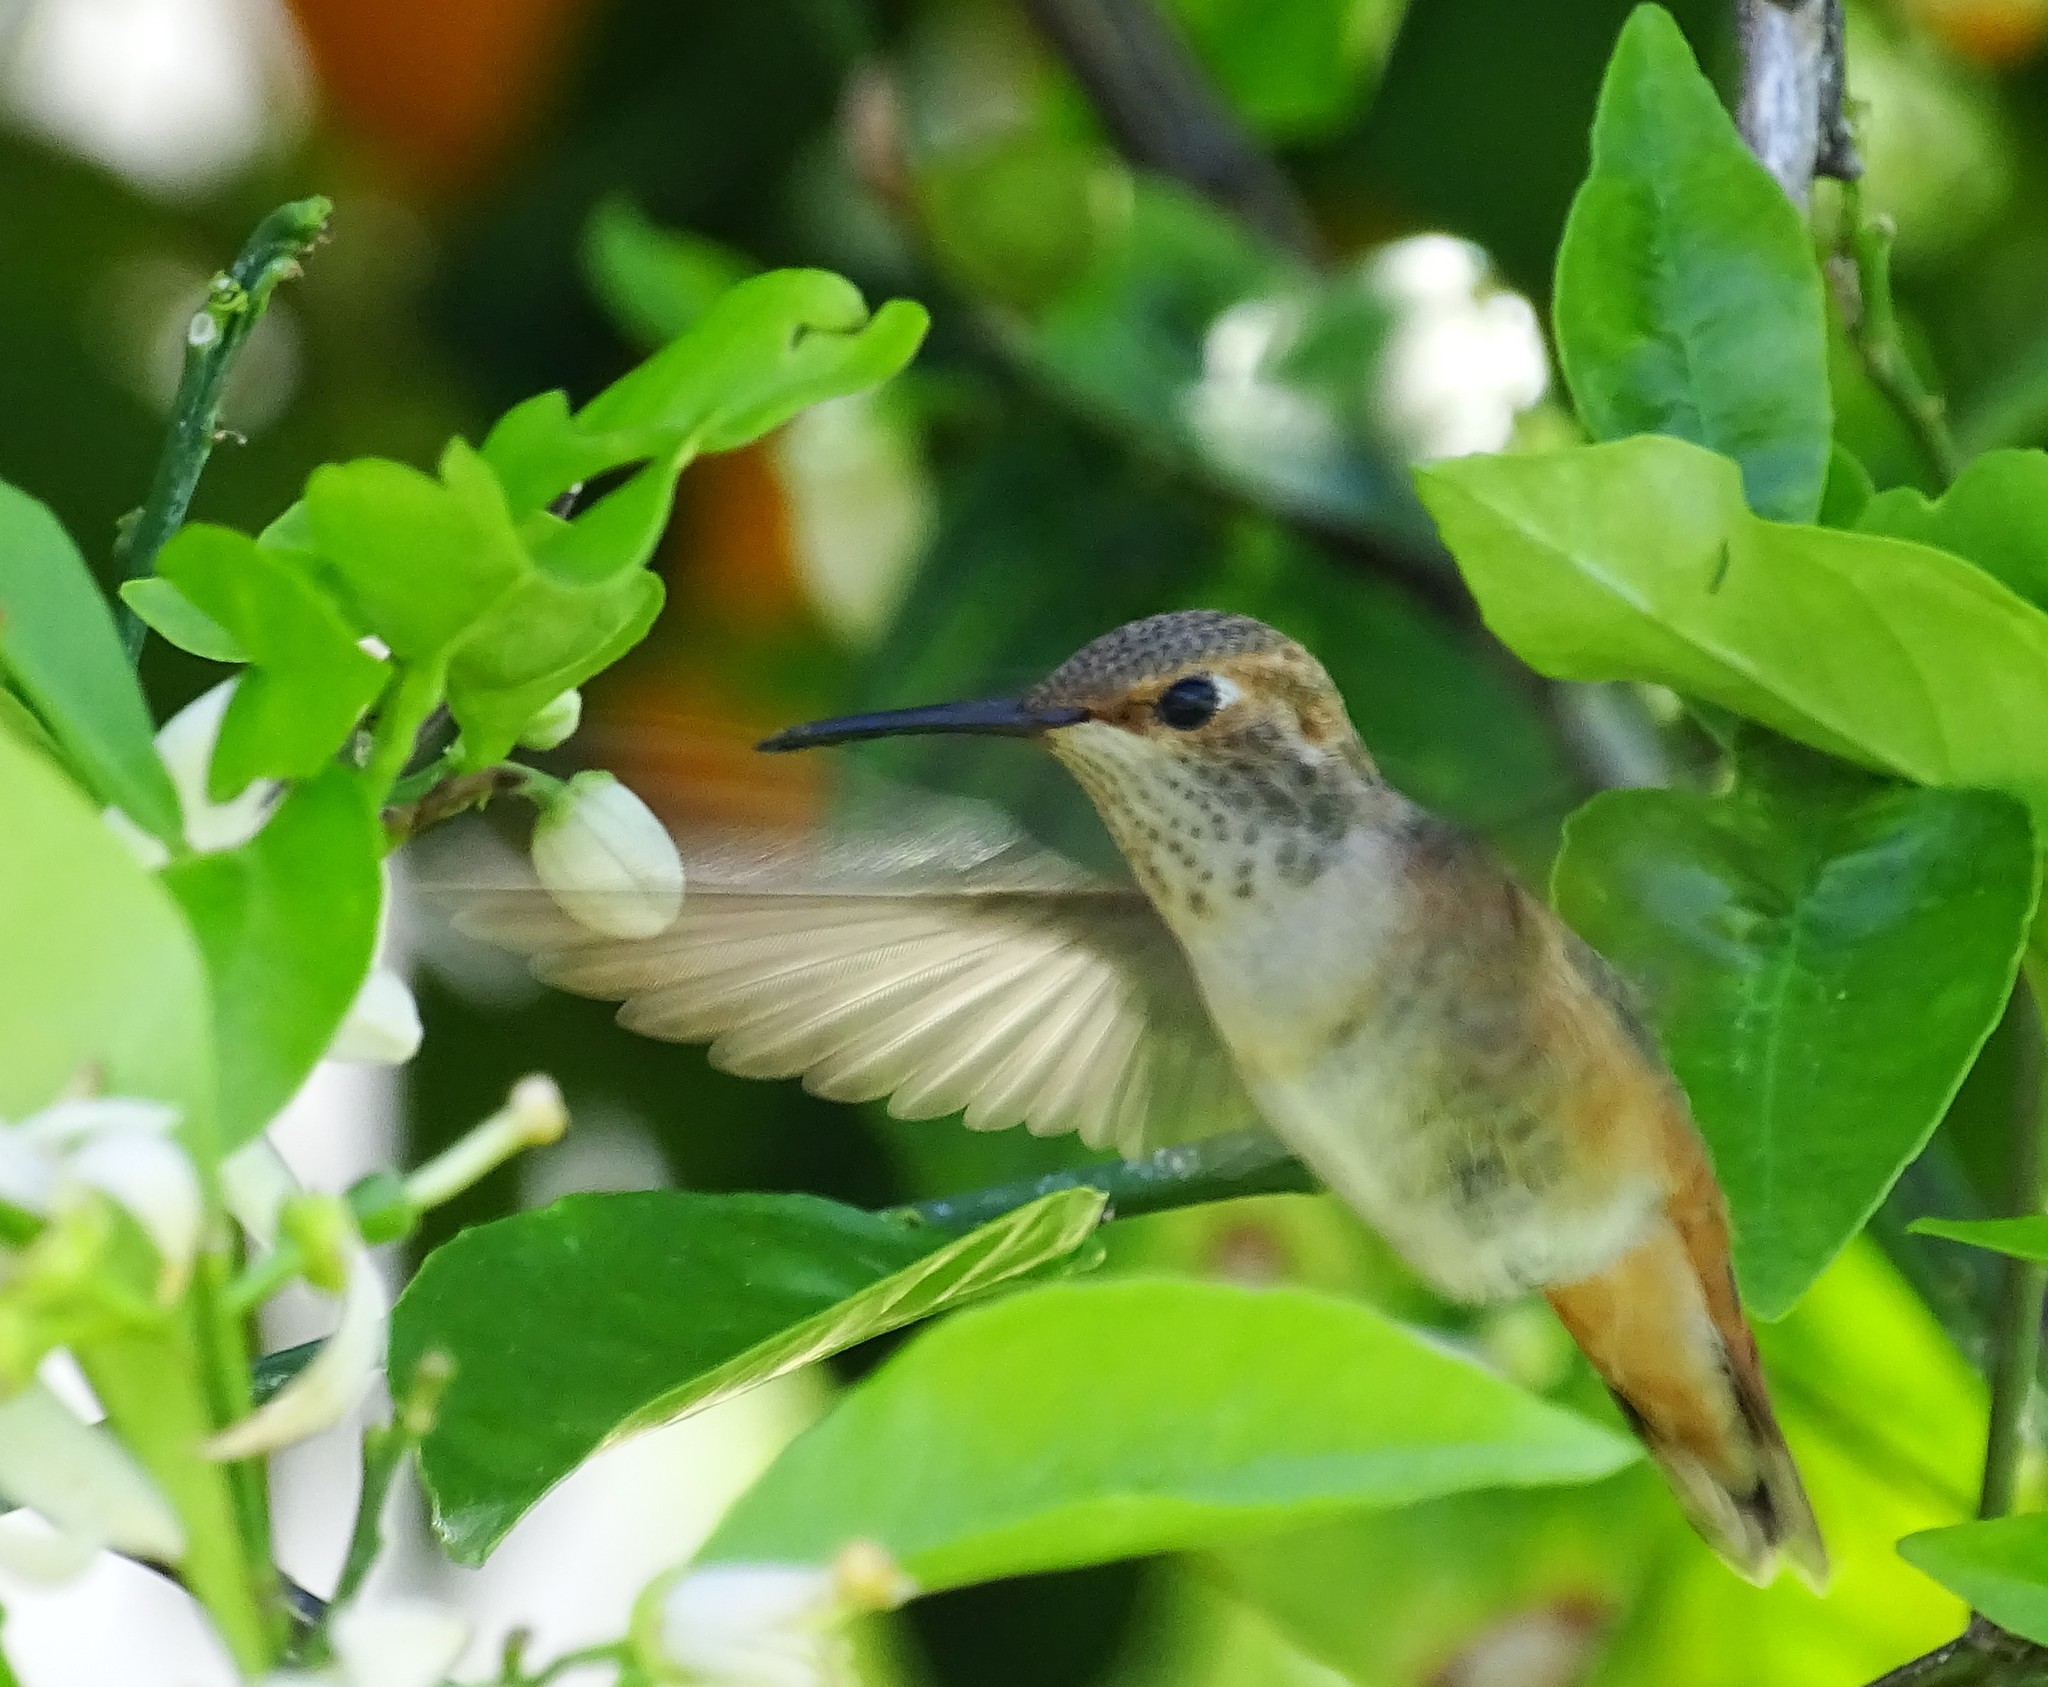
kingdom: Animalia
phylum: Chordata
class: Aves
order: Apodiformes
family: Trochilidae
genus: Selasphorus
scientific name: Selasphorus sasin
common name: Allen's hummingbird
